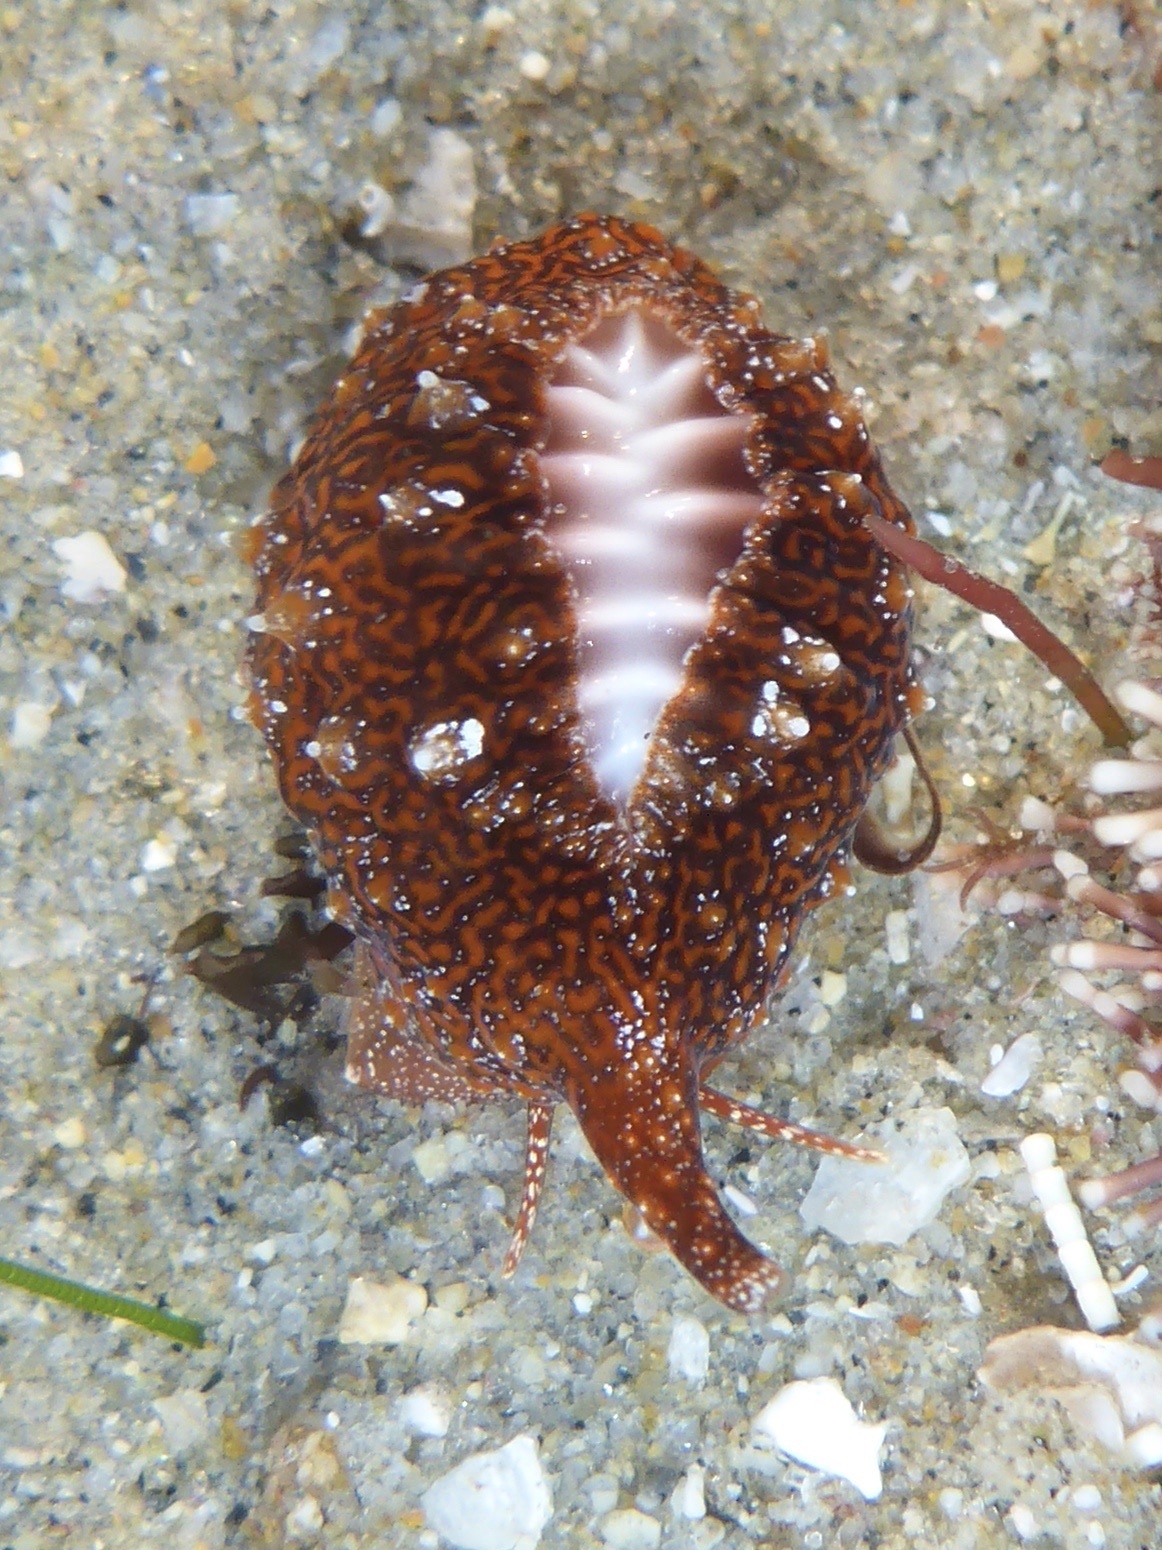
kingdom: Animalia
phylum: Mollusca
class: Gastropoda
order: Littorinimorpha
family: Triviidae
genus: Pseudopusula
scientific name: Pseudopusula californiana
